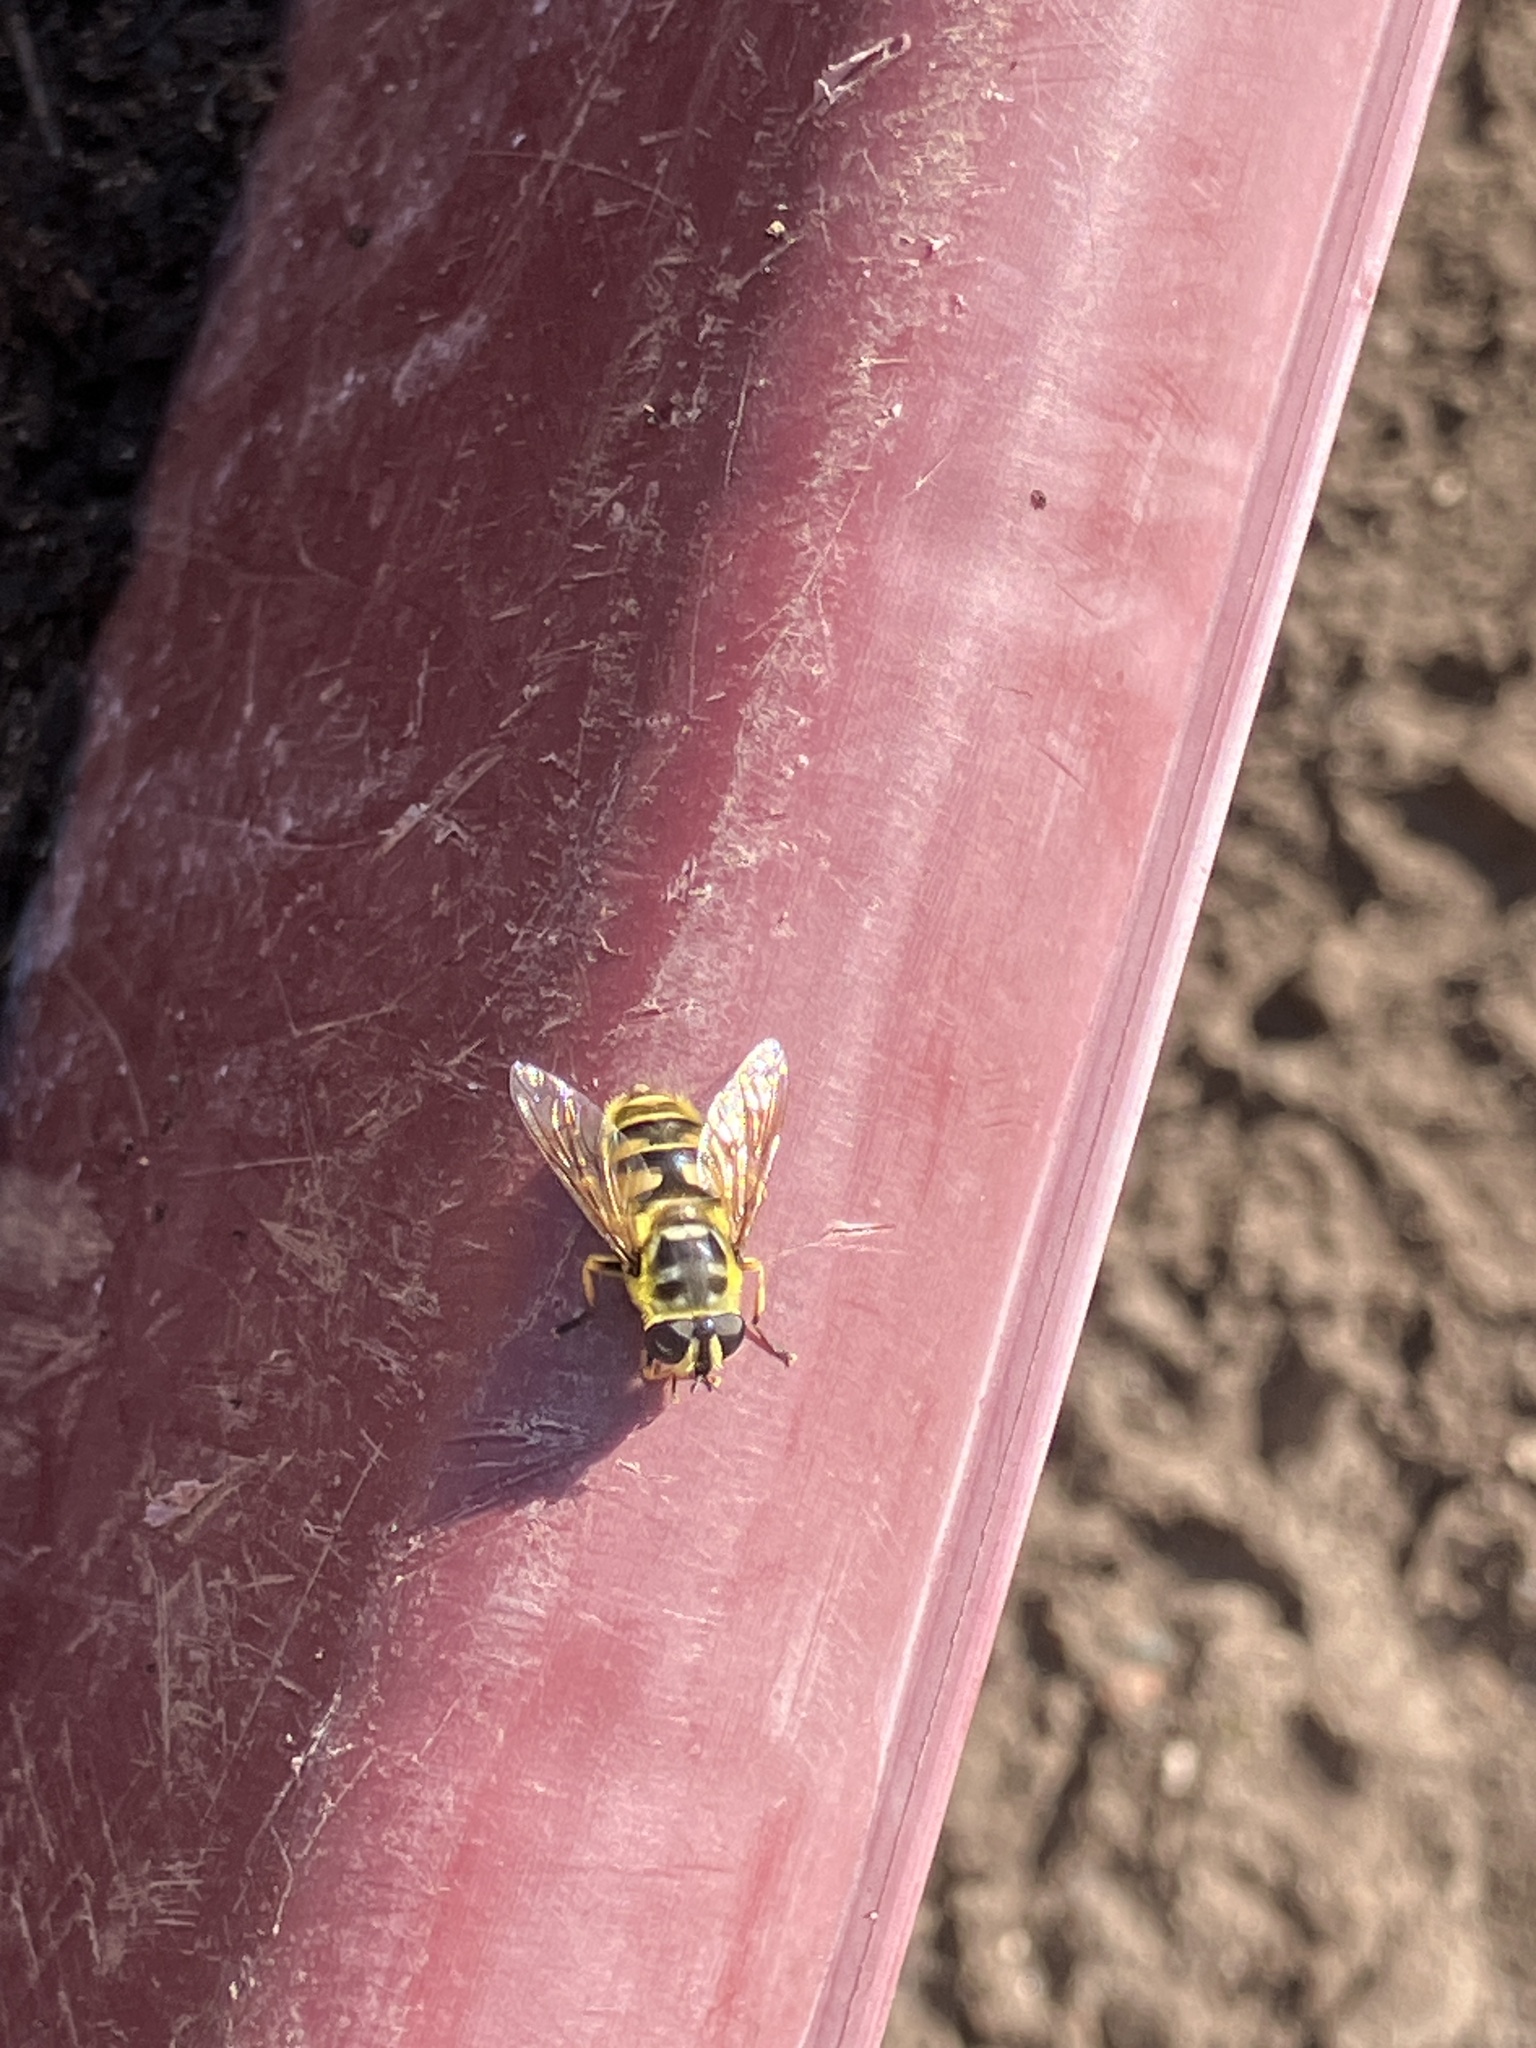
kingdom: Animalia
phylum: Arthropoda
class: Insecta
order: Diptera
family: Syrphidae
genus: Myathropa
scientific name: Myathropa florea
